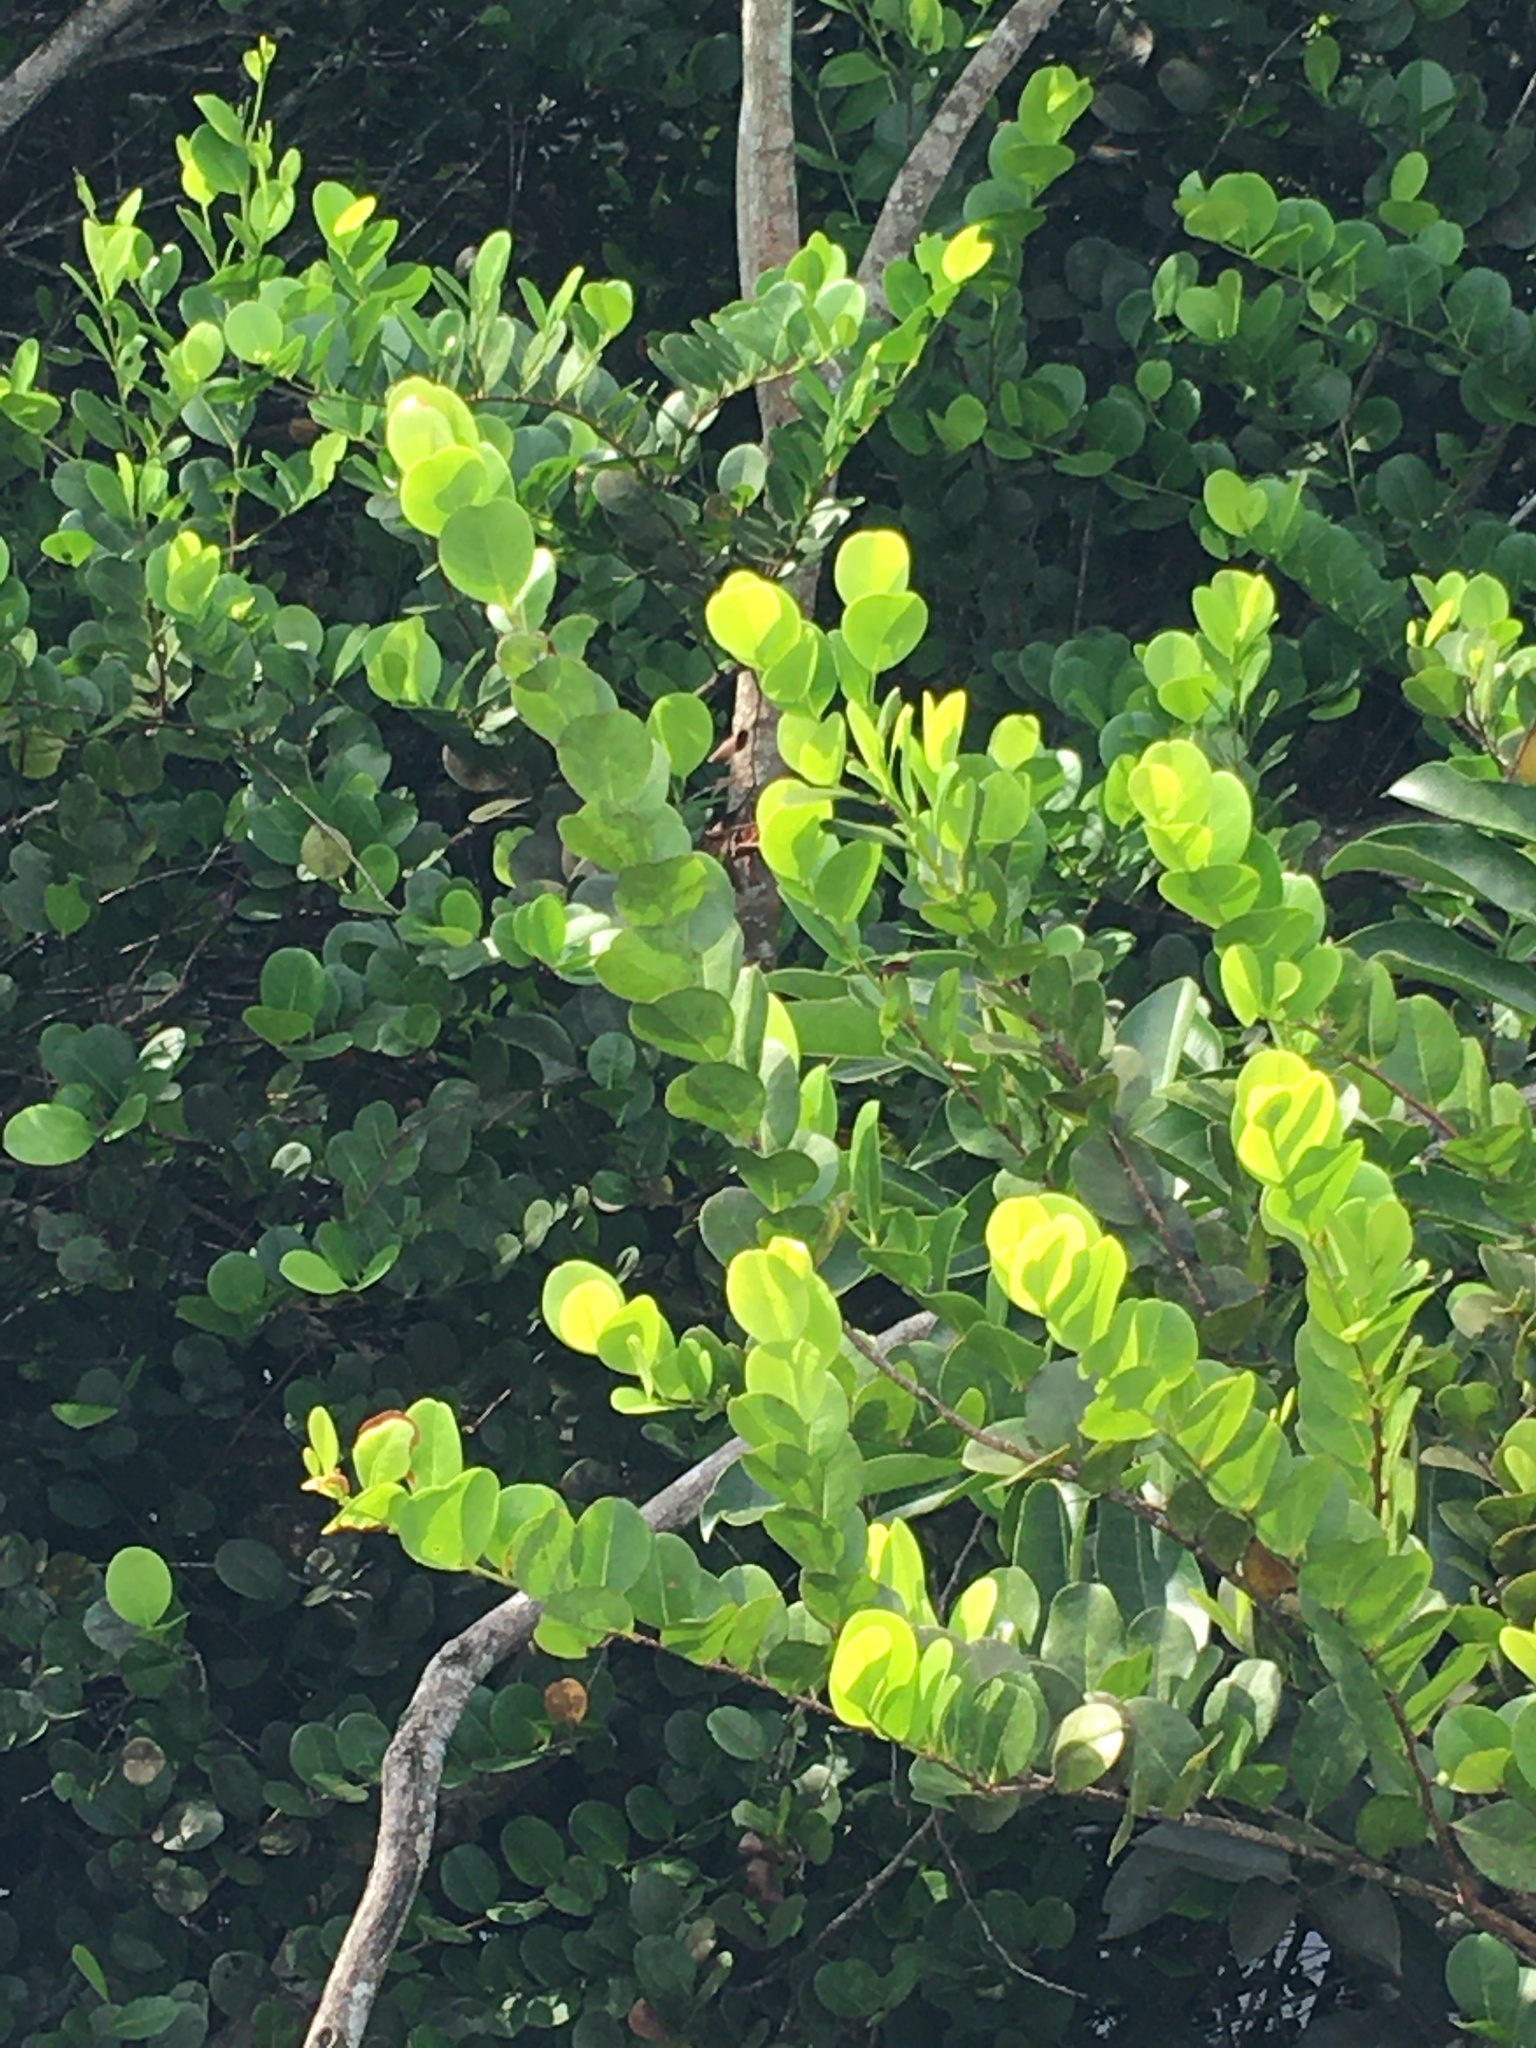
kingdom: Plantae
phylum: Tracheophyta
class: Magnoliopsida
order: Malpighiales
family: Chrysobalanaceae
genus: Chrysobalanus
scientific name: Chrysobalanus icaco
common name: Coco plum
